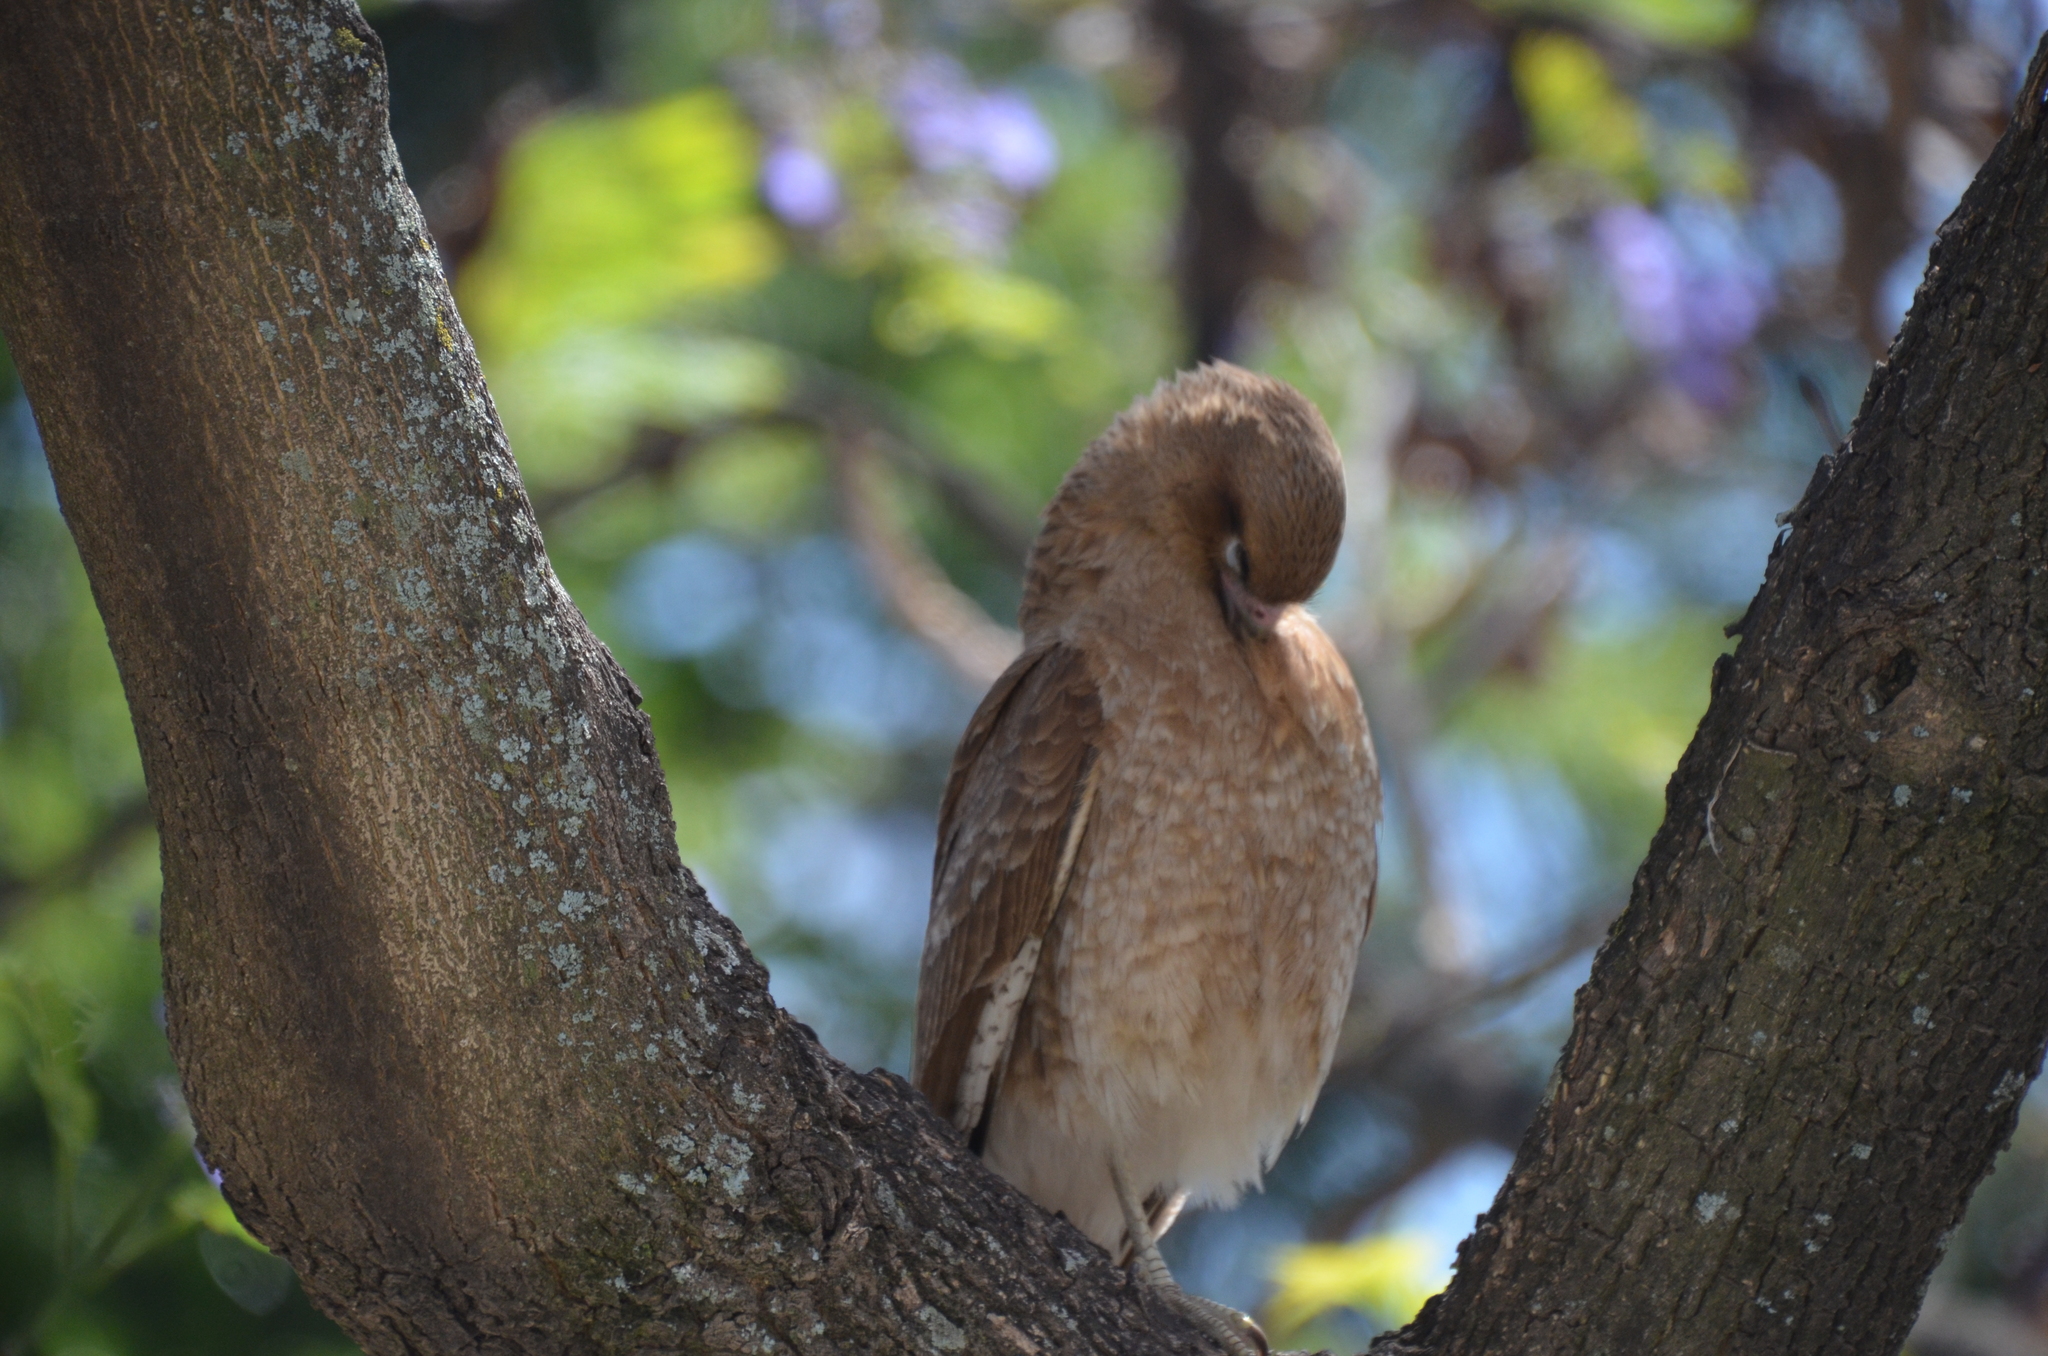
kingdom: Animalia
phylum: Chordata
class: Aves
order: Falconiformes
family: Falconidae
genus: Daptrius
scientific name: Daptrius
